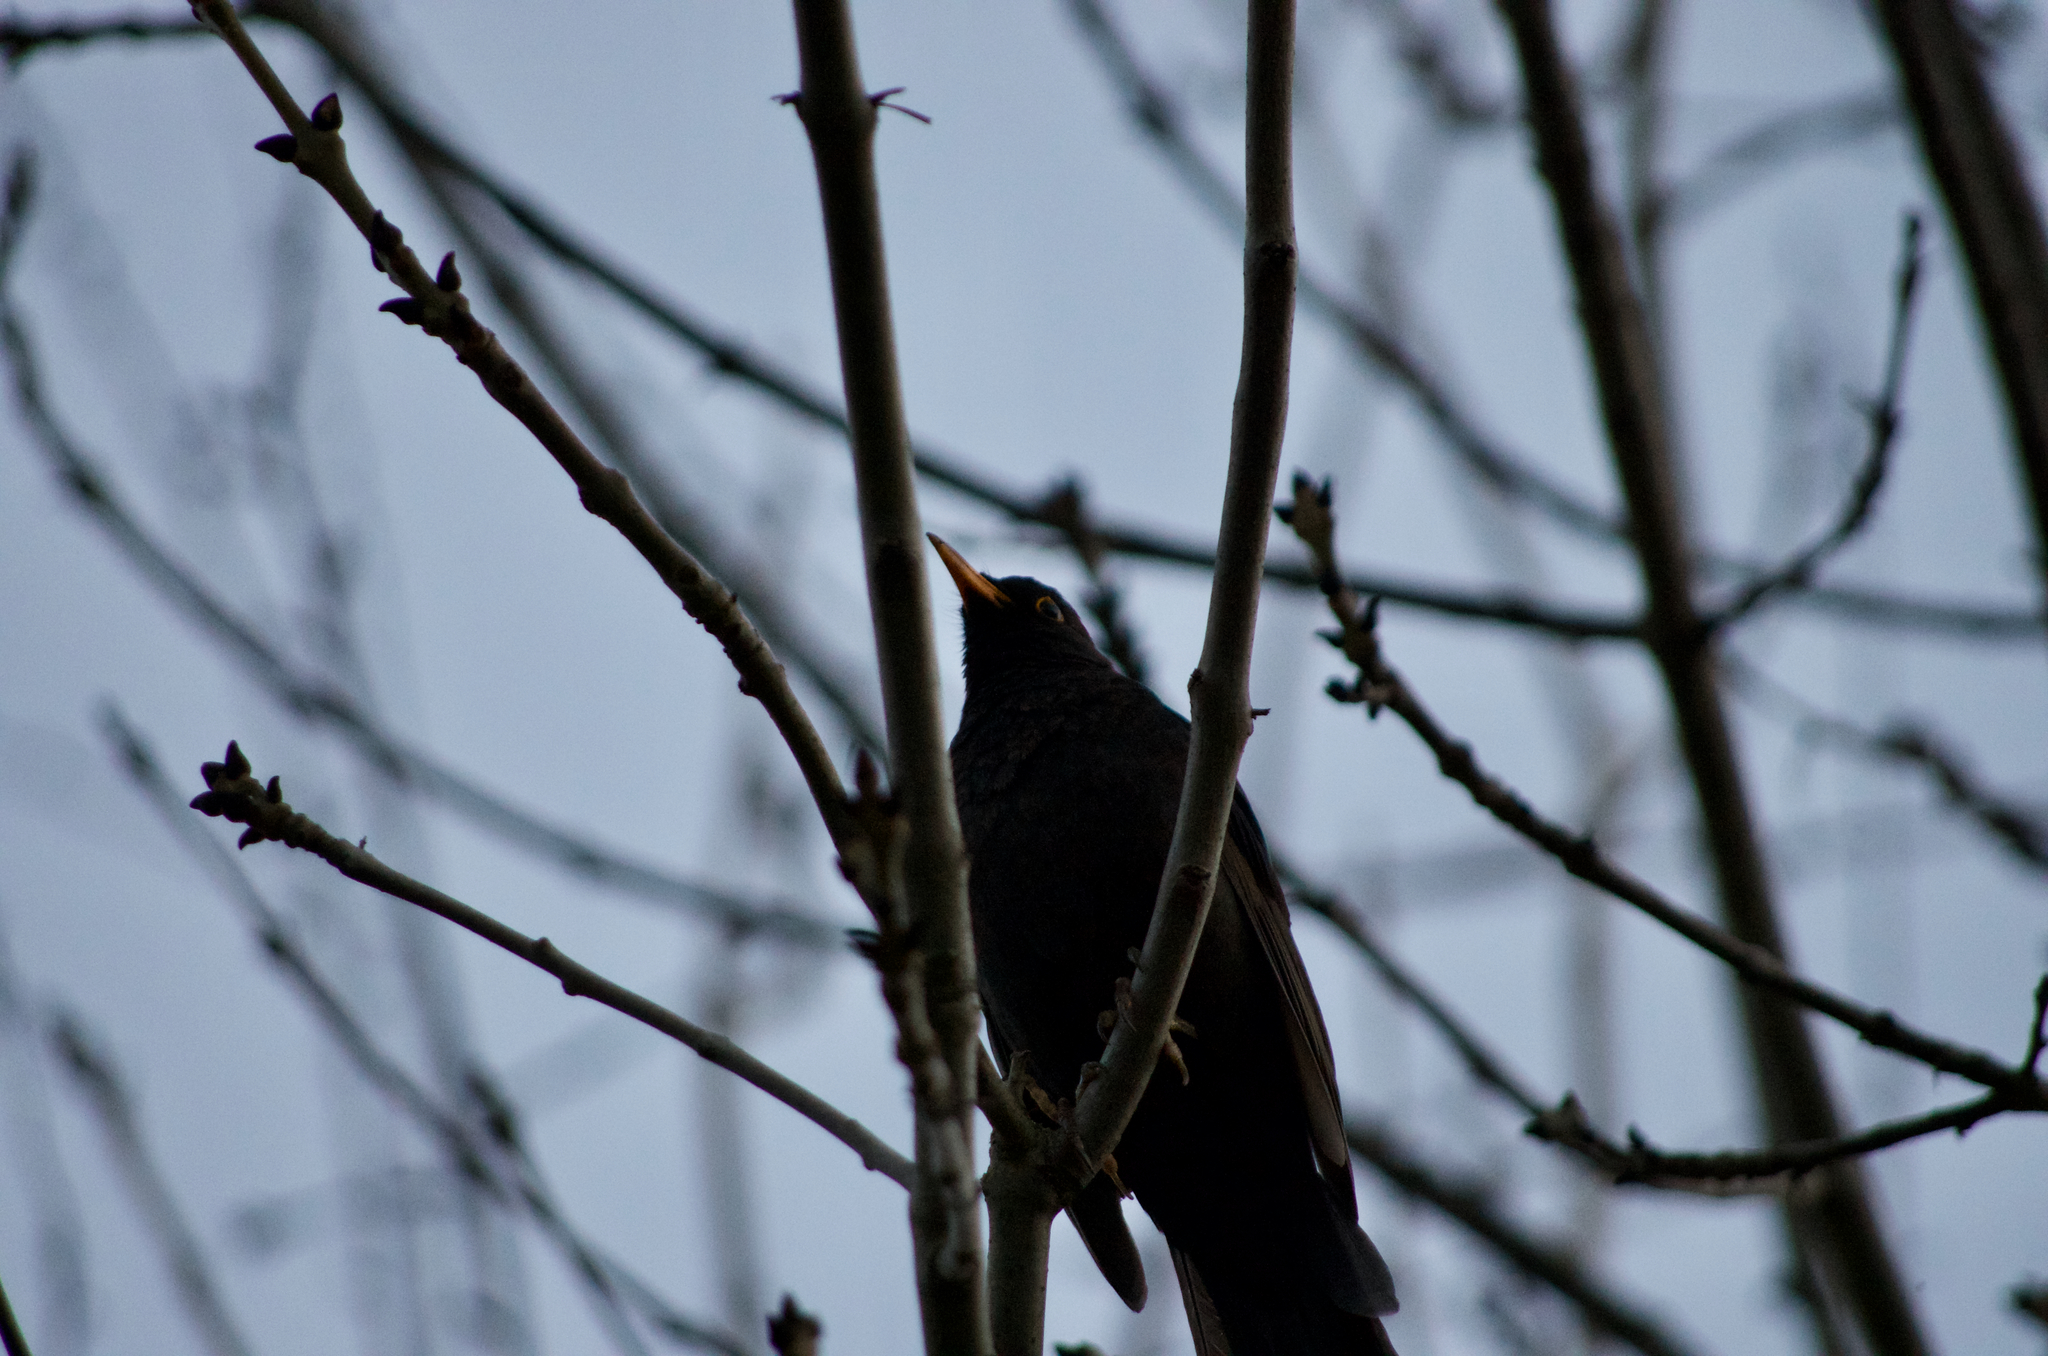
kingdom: Animalia
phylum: Chordata
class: Aves
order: Passeriformes
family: Turdidae
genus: Turdus
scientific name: Turdus merula
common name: Common blackbird
